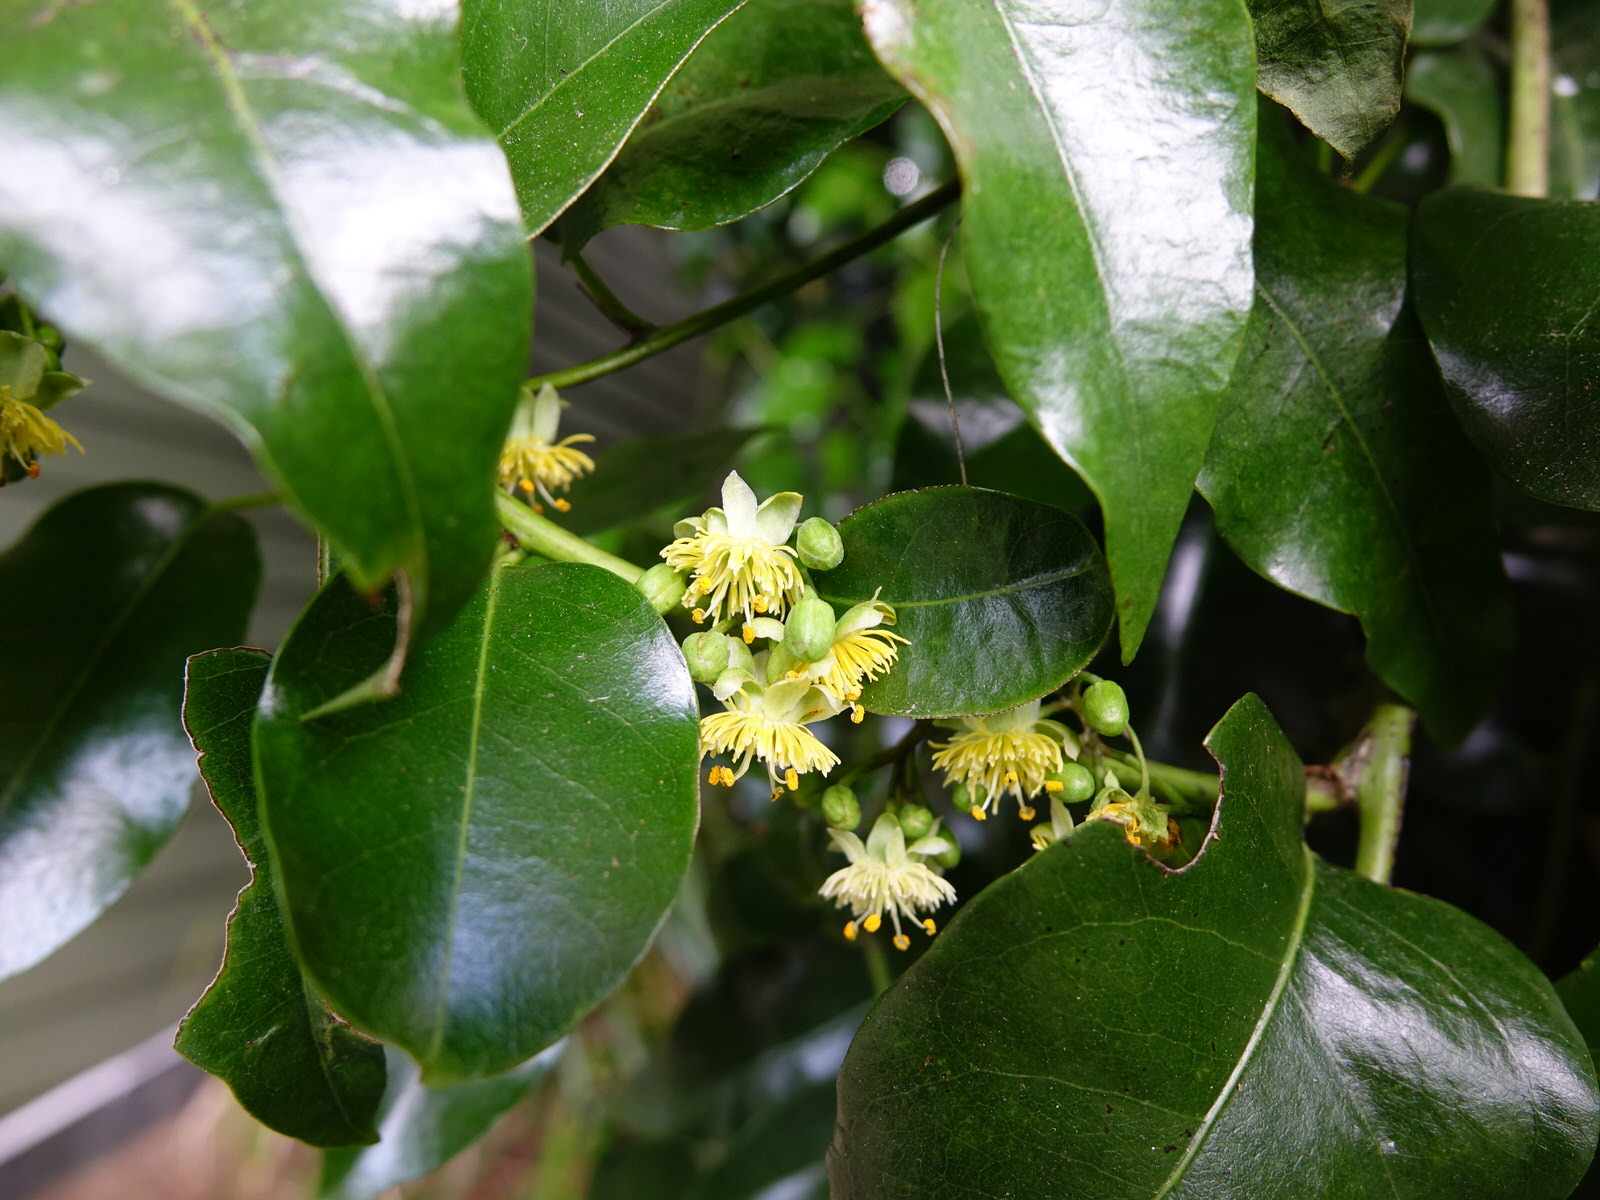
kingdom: Plantae
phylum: Tracheophyta
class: Magnoliopsida
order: Malpighiales
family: Passifloraceae
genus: Passiflora
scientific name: Passiflora tetrandra
